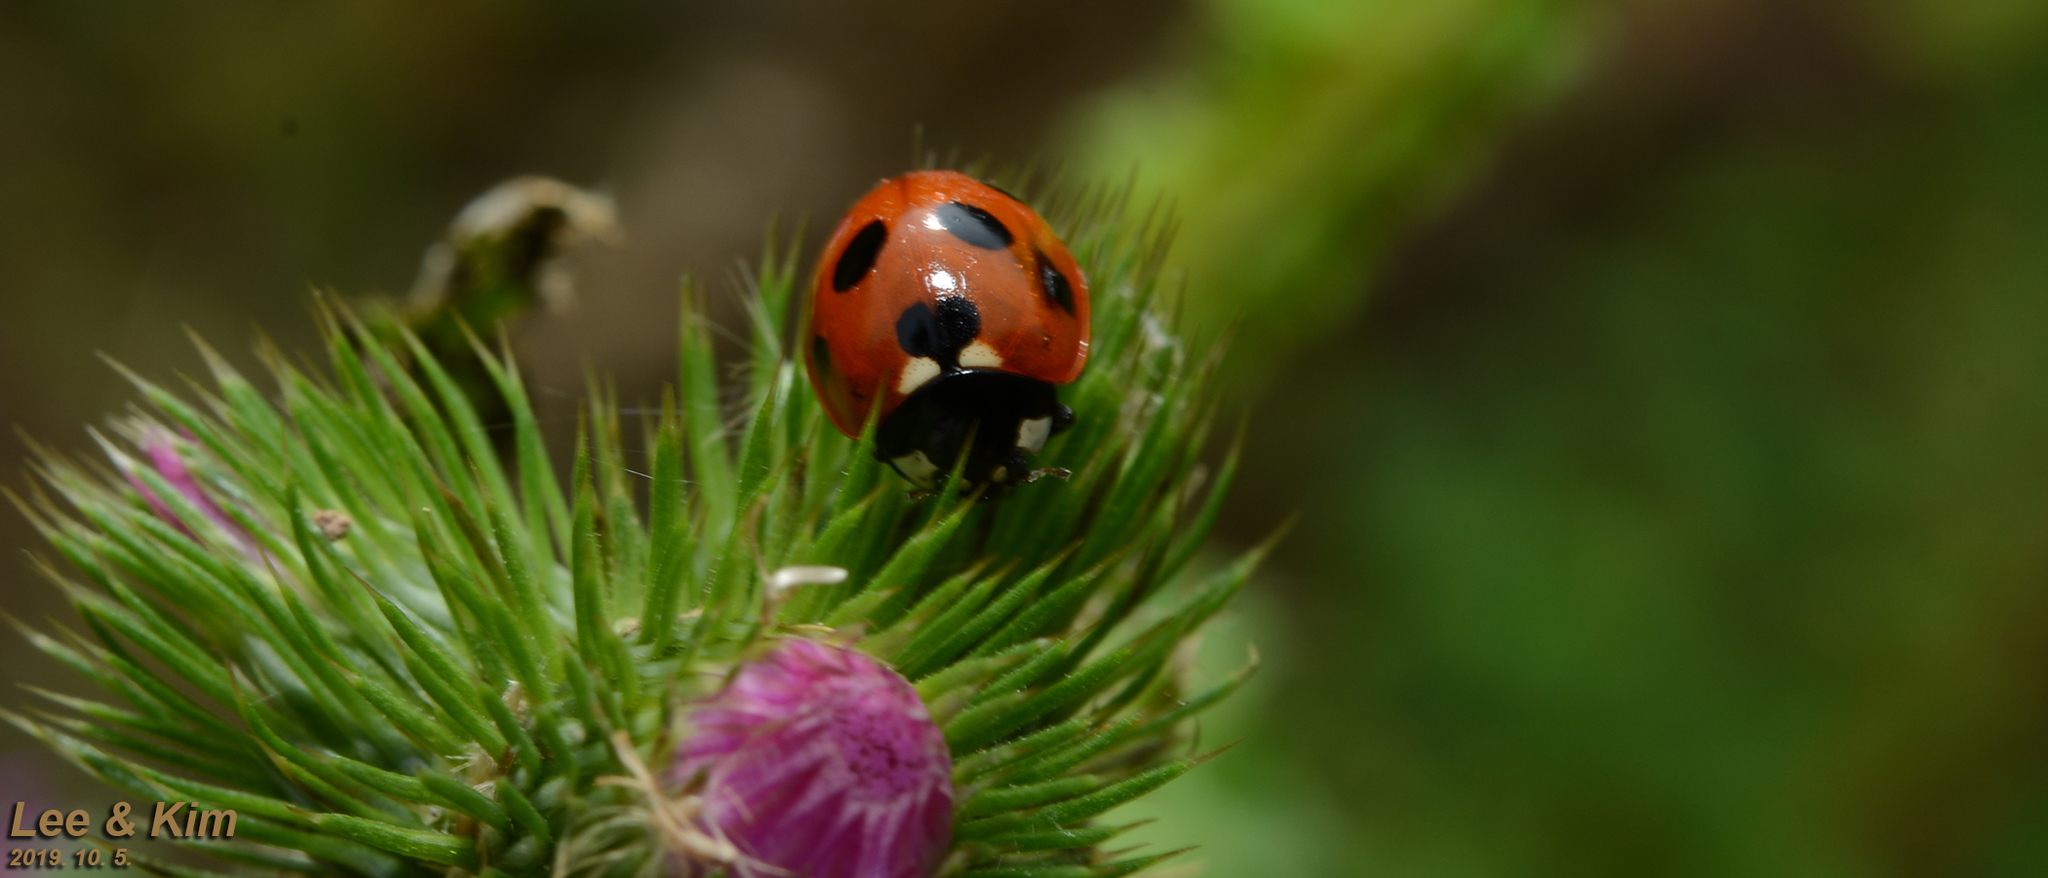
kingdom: Animalia
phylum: Arthropoda
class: Insecta
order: Coleoptera
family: Coccinellidae
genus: Coccinella
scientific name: Coccinella septempunctata
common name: Sevenspotted lady beetle
